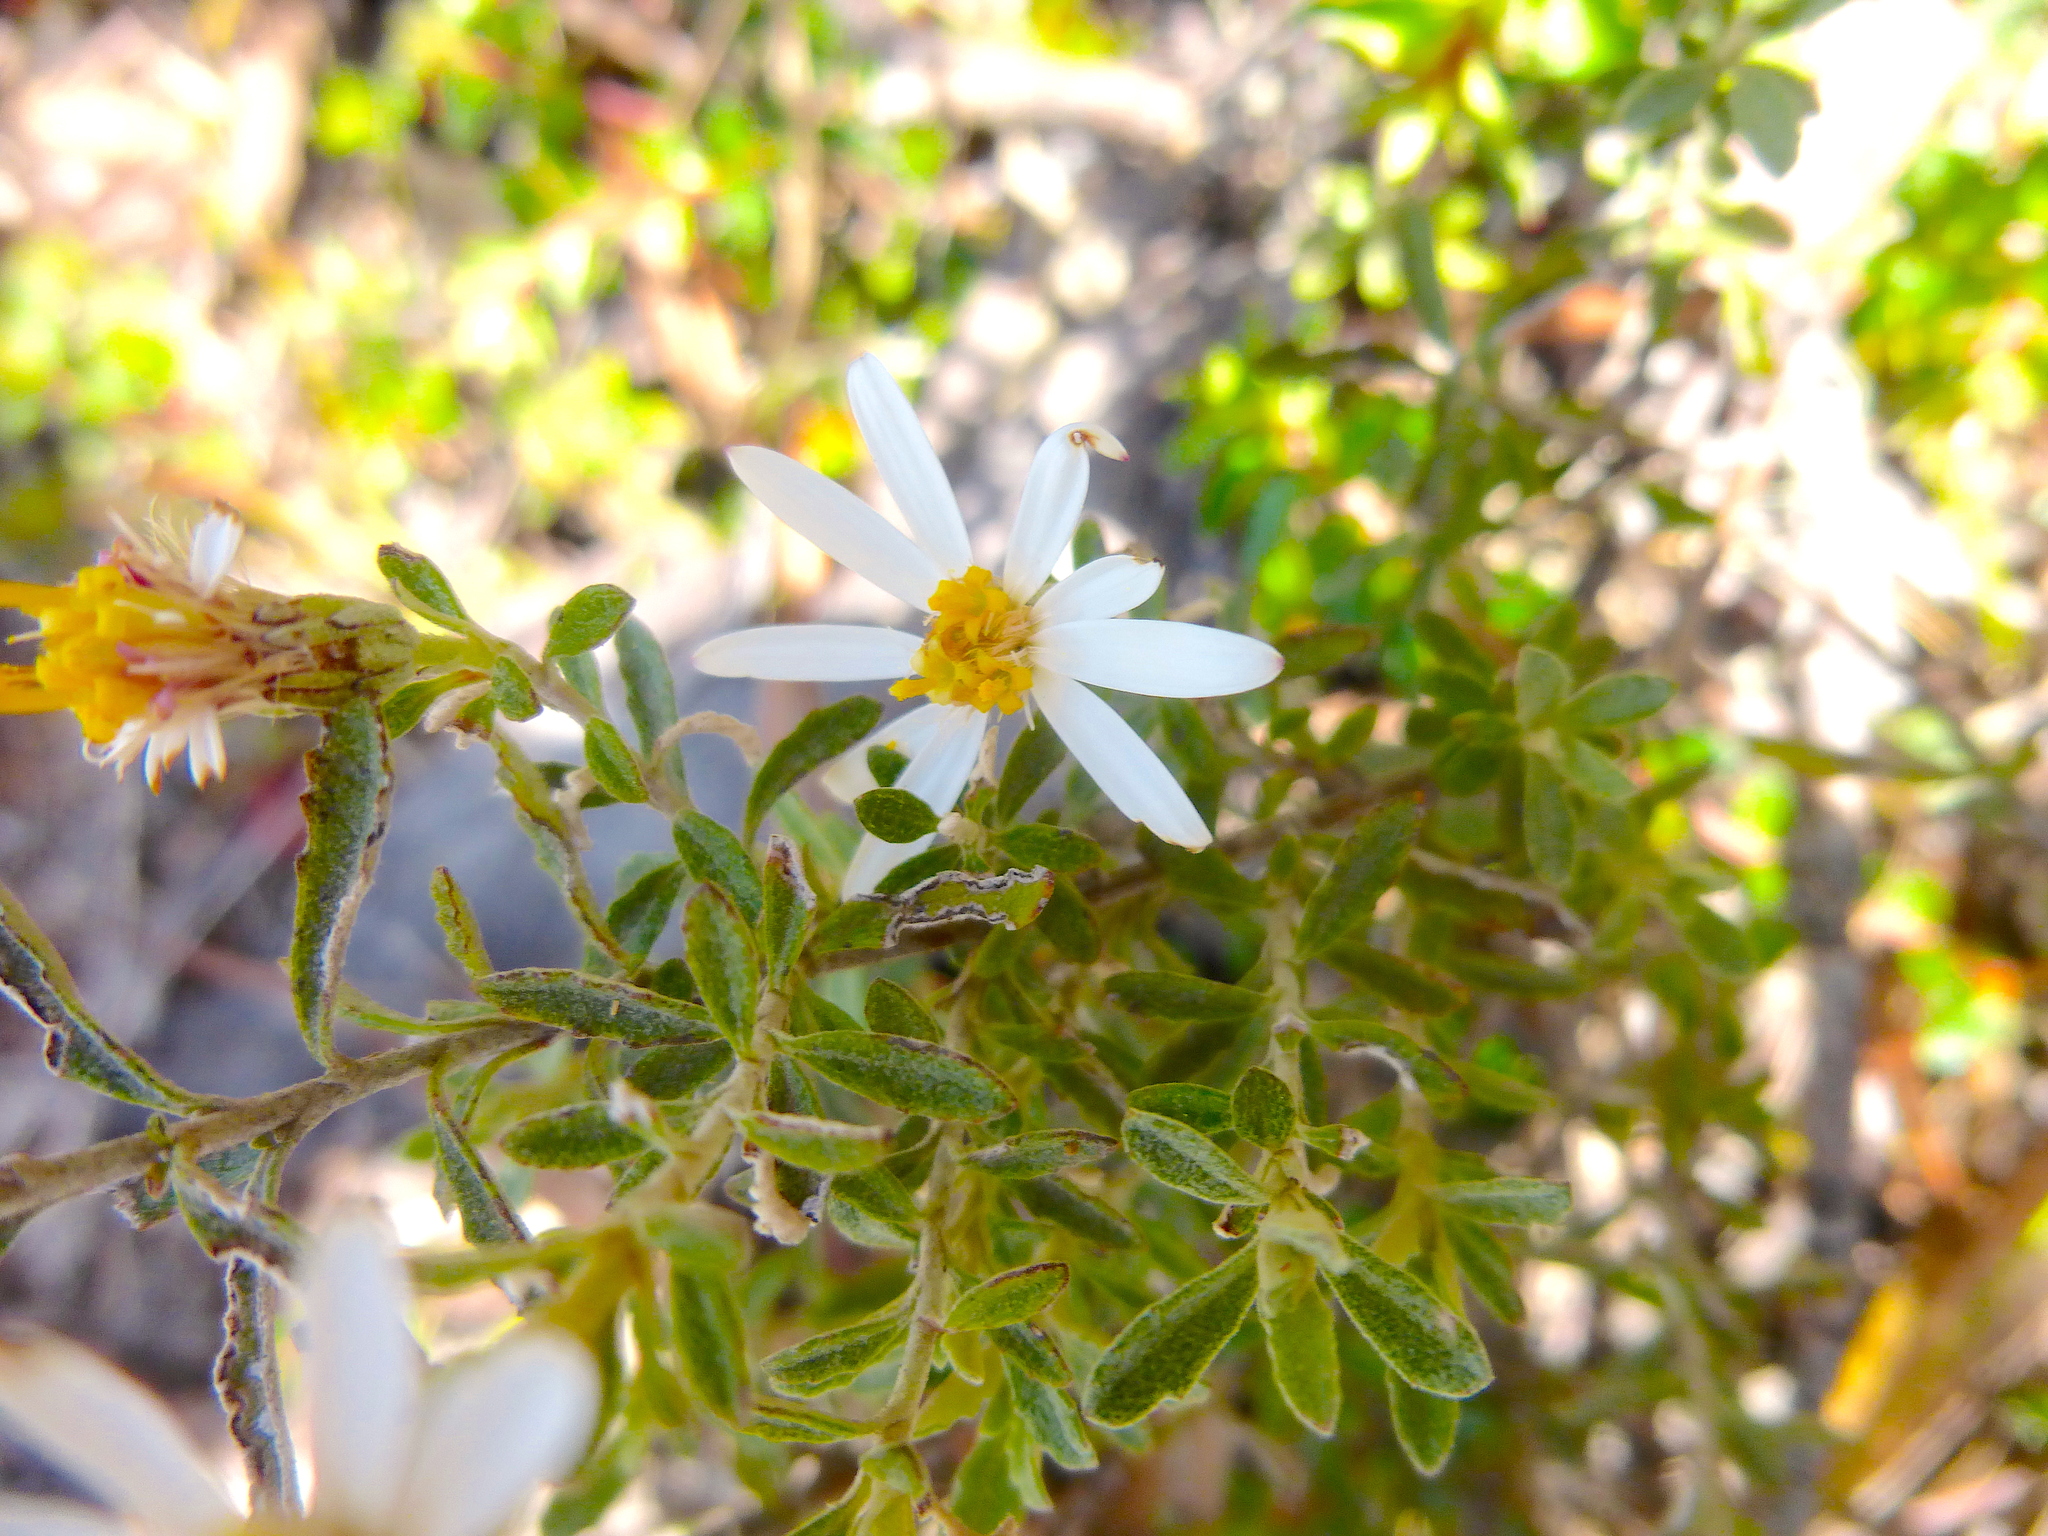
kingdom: Plantae
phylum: Tracheophyta
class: Magnoliopsida
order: Asterales
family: Asteraceae
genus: Olearia
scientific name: Olearia phlogopappa
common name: Alpine daisybush
